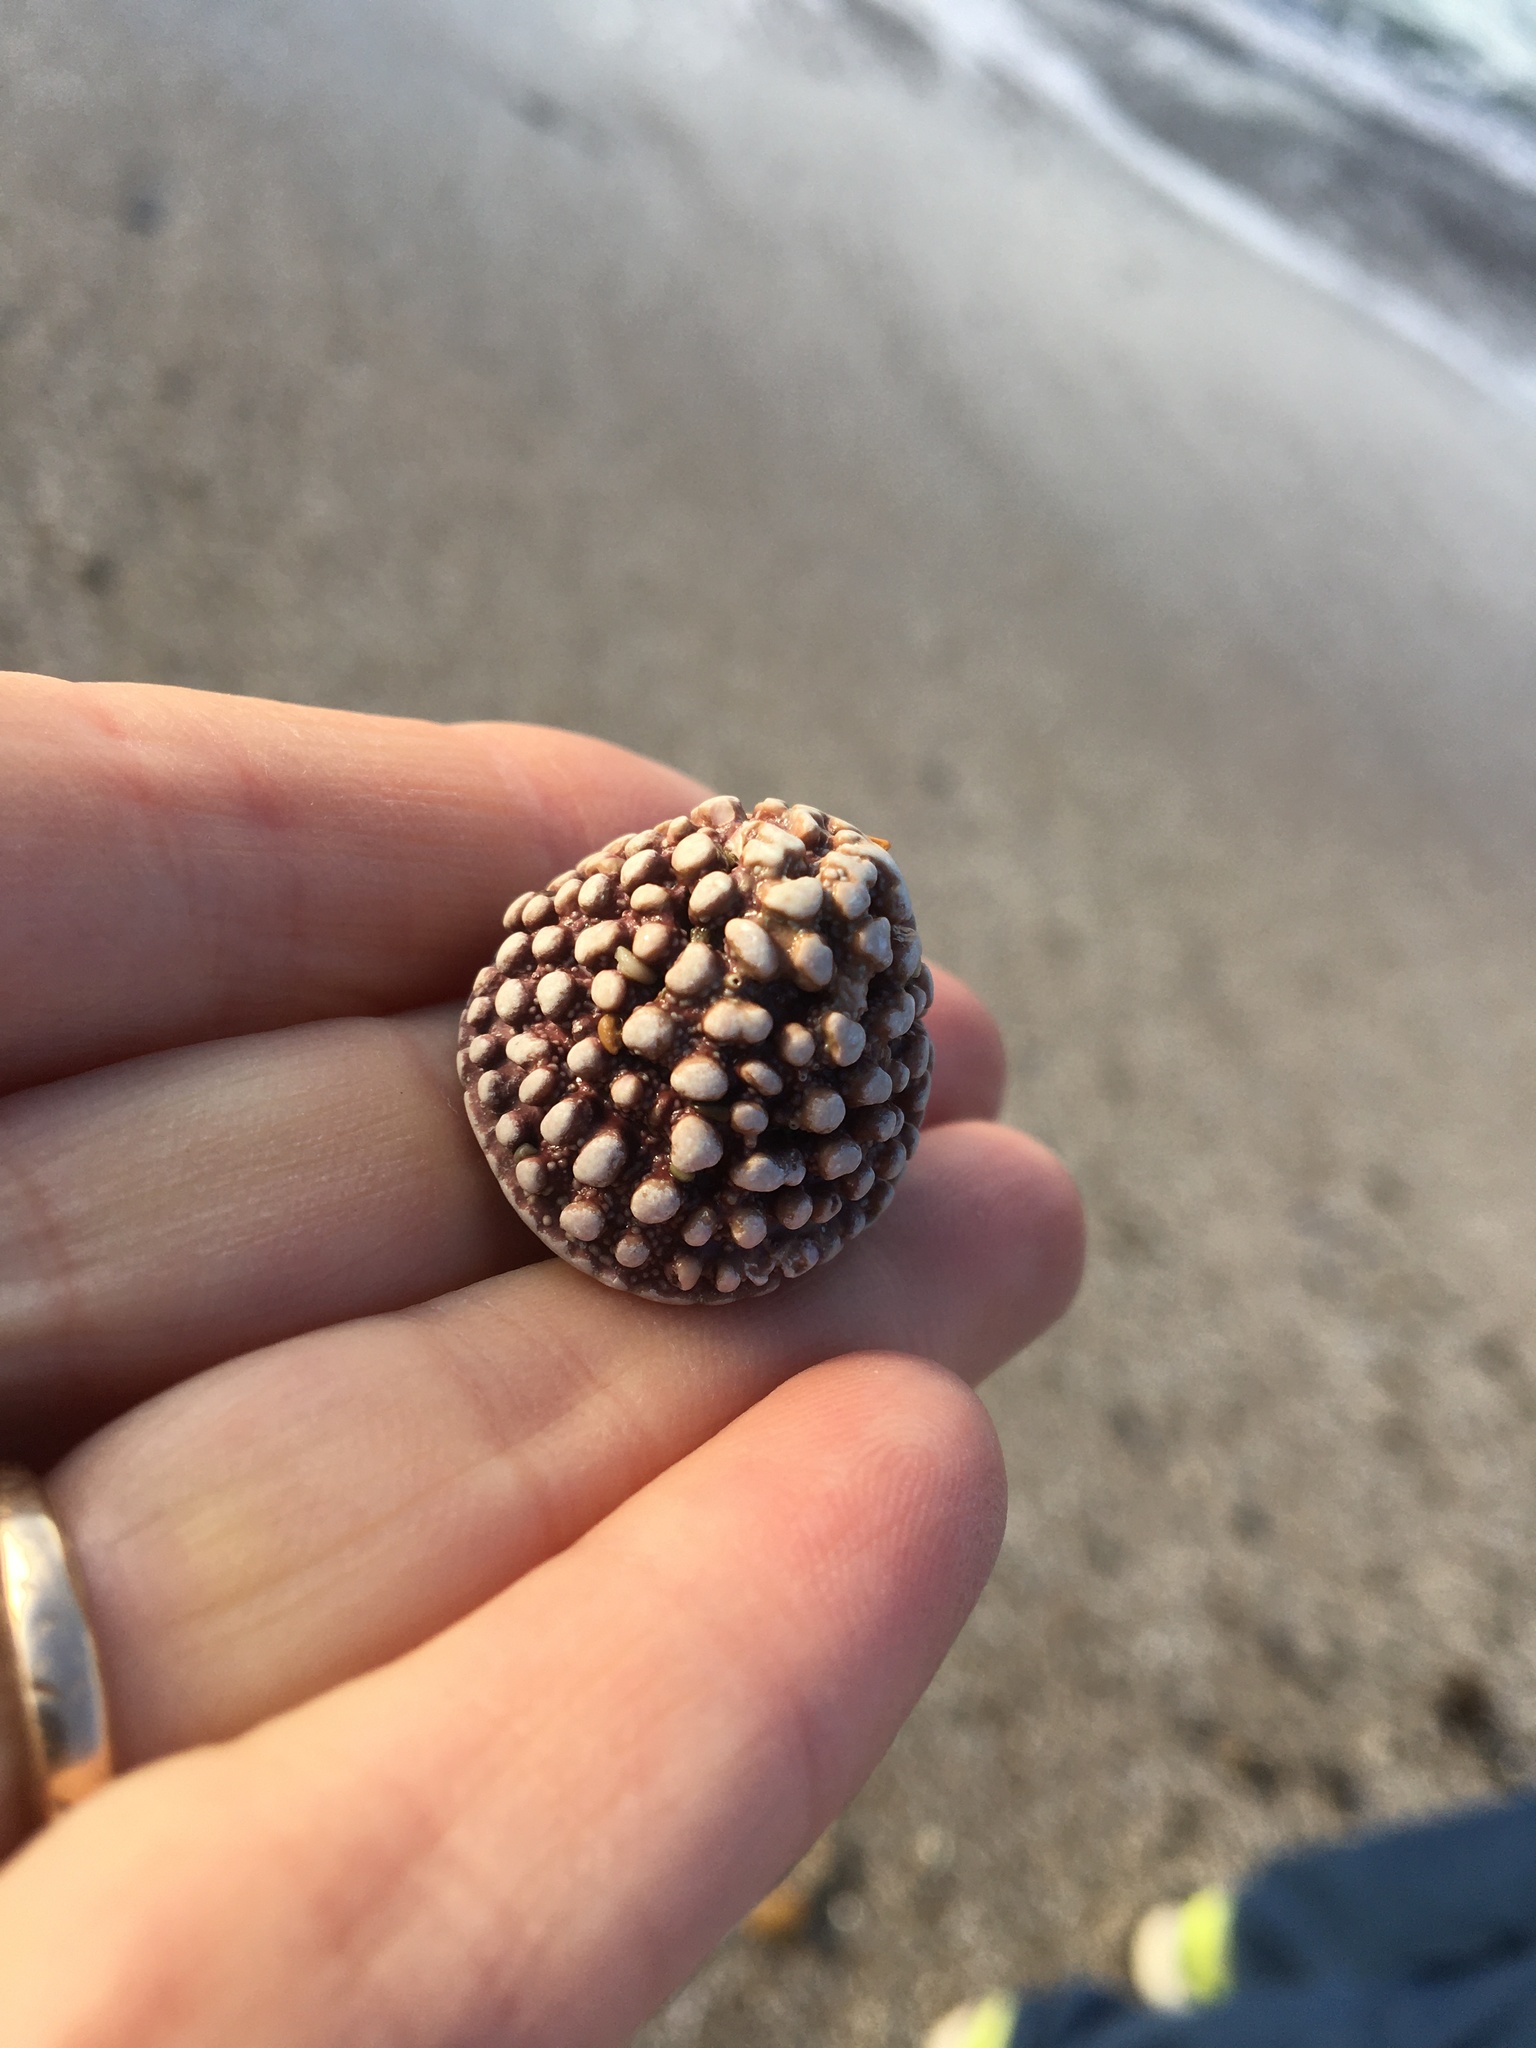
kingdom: Animalia
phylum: Mollusca
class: Gastropoda
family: Acmaeidae
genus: Acmaea
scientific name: Acmaea mitra
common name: Pacific white cap limpet
